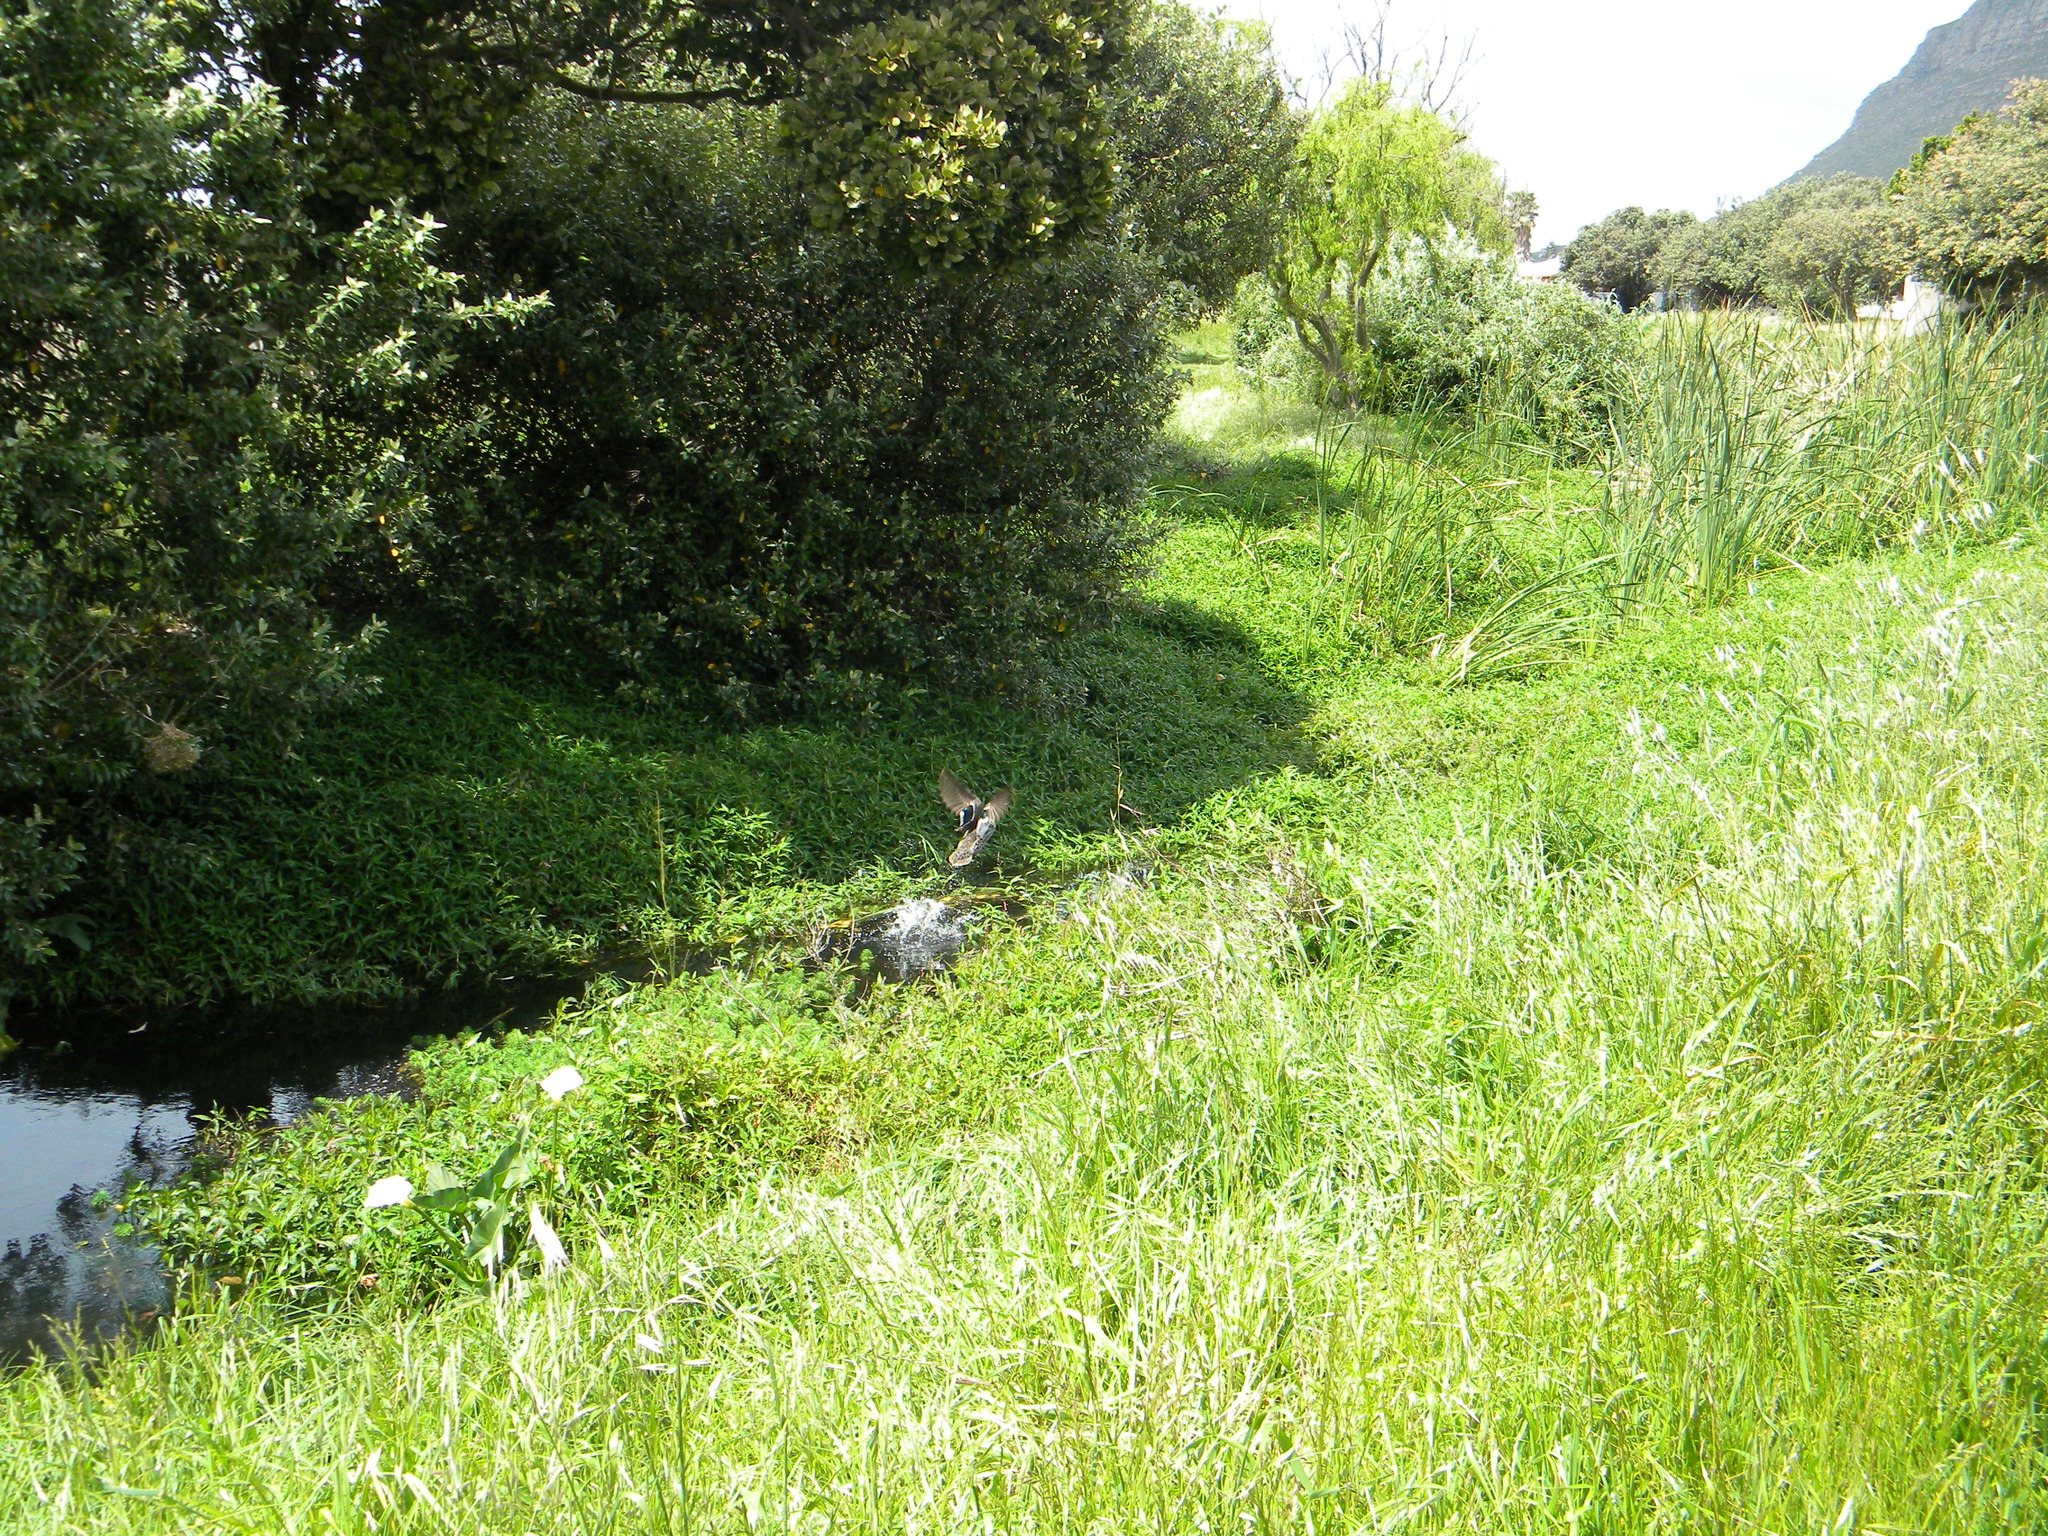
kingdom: Animalia
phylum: Chordata
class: Aves
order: Anseriformes
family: Anatidae
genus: Anas
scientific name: Anas undulata
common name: Yellow-billed duck
